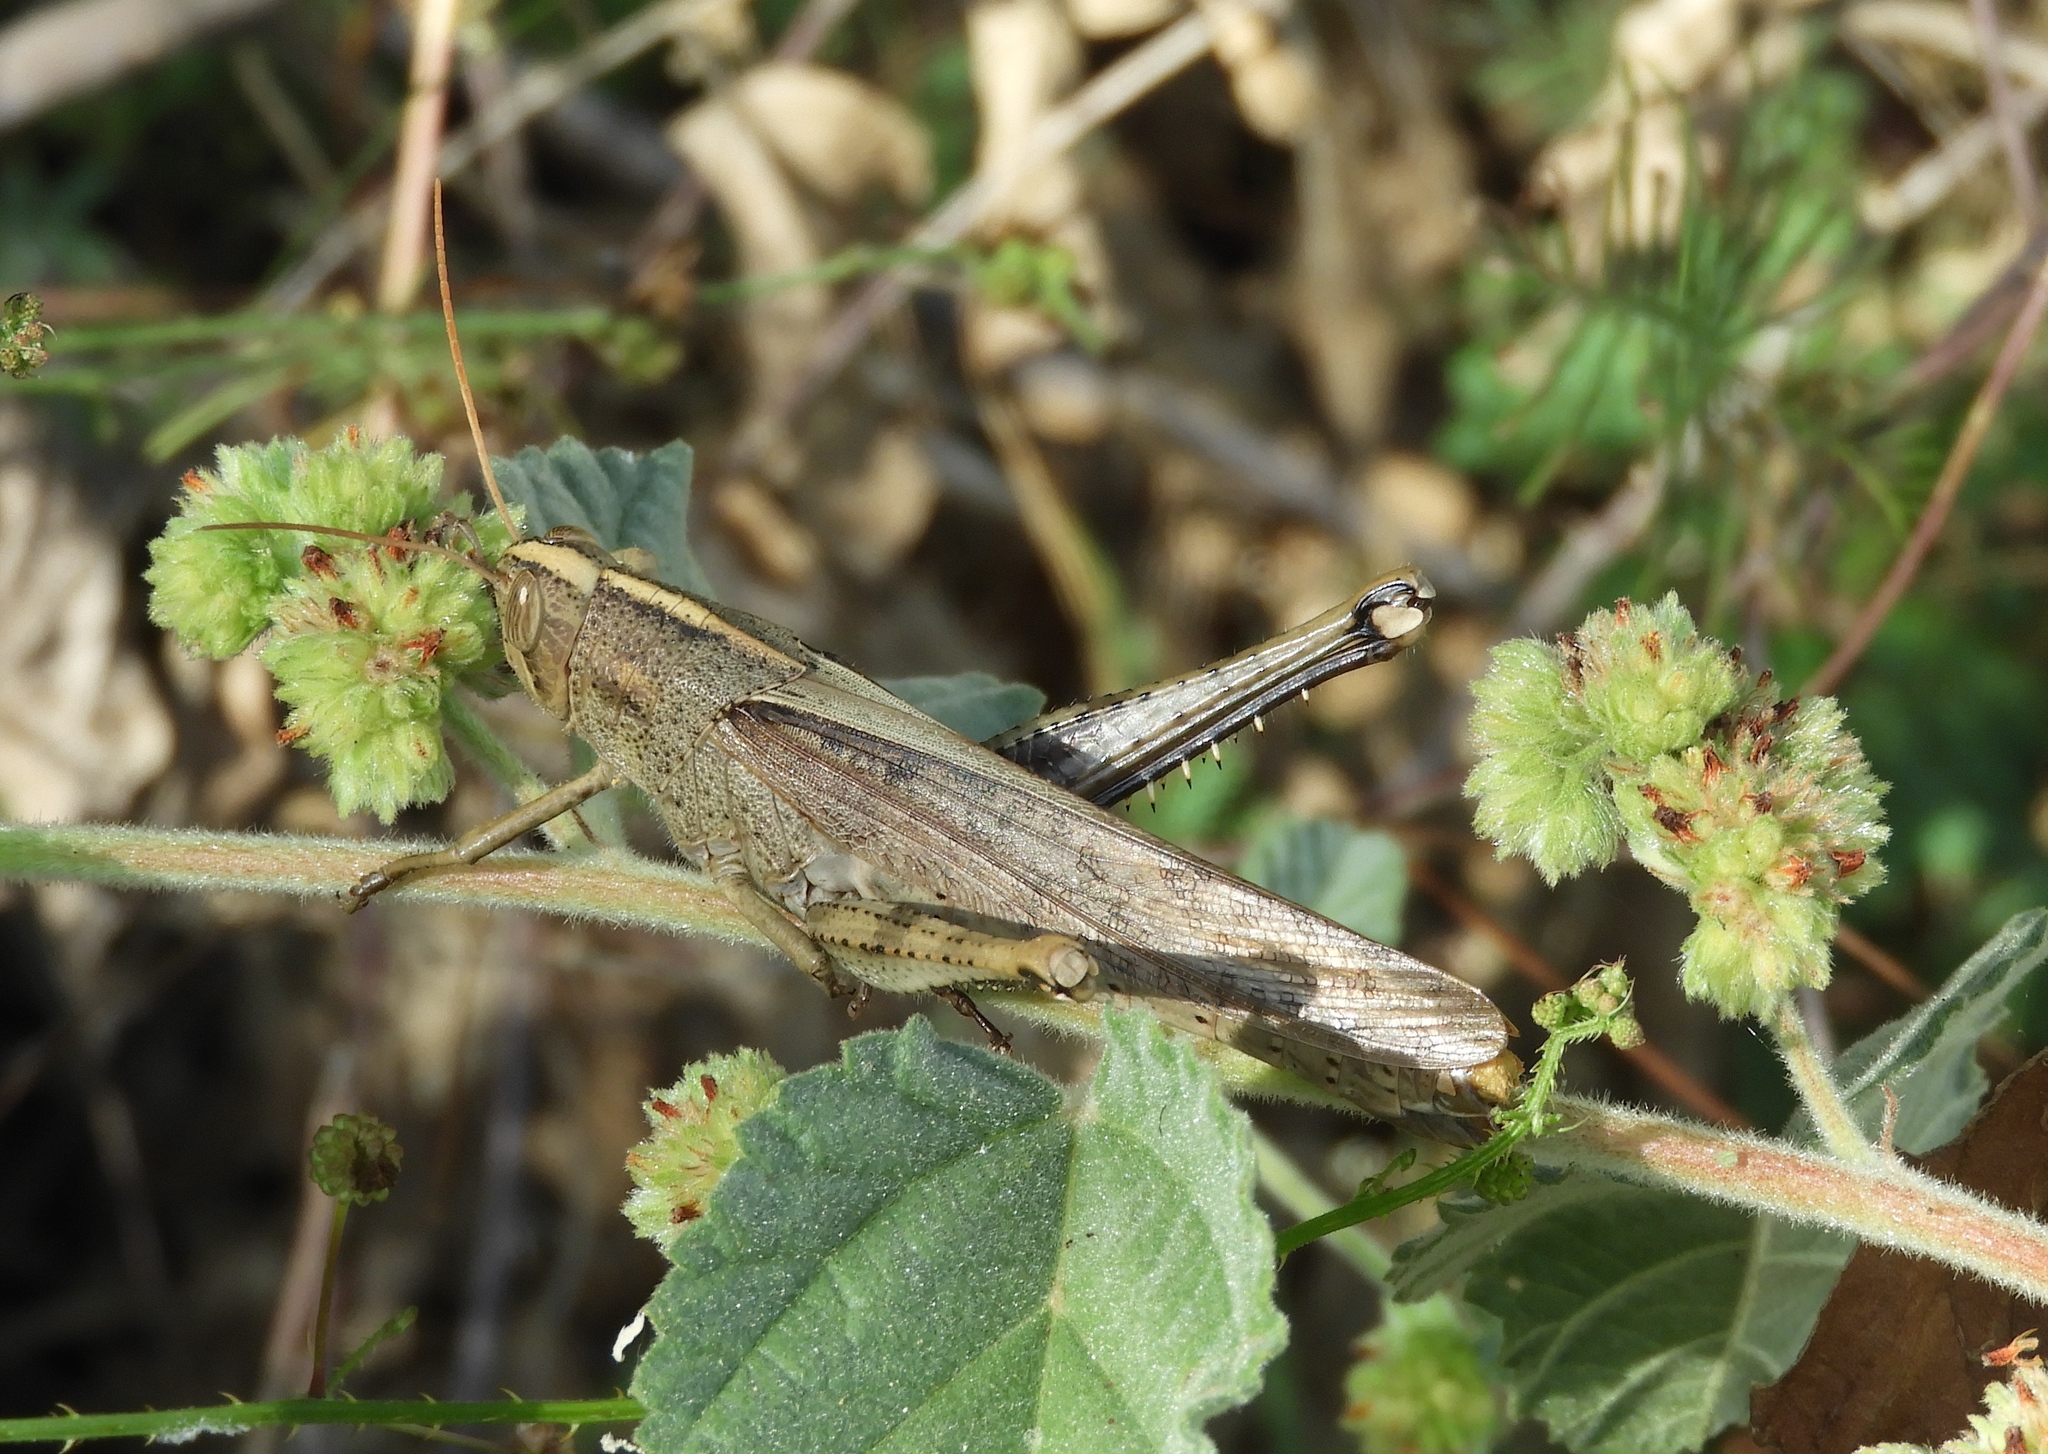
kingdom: Animalia
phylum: Arthropoda
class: Insecta
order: Orthoptera
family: Acrididae
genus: Schistocerca
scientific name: Schistocerca camerata
